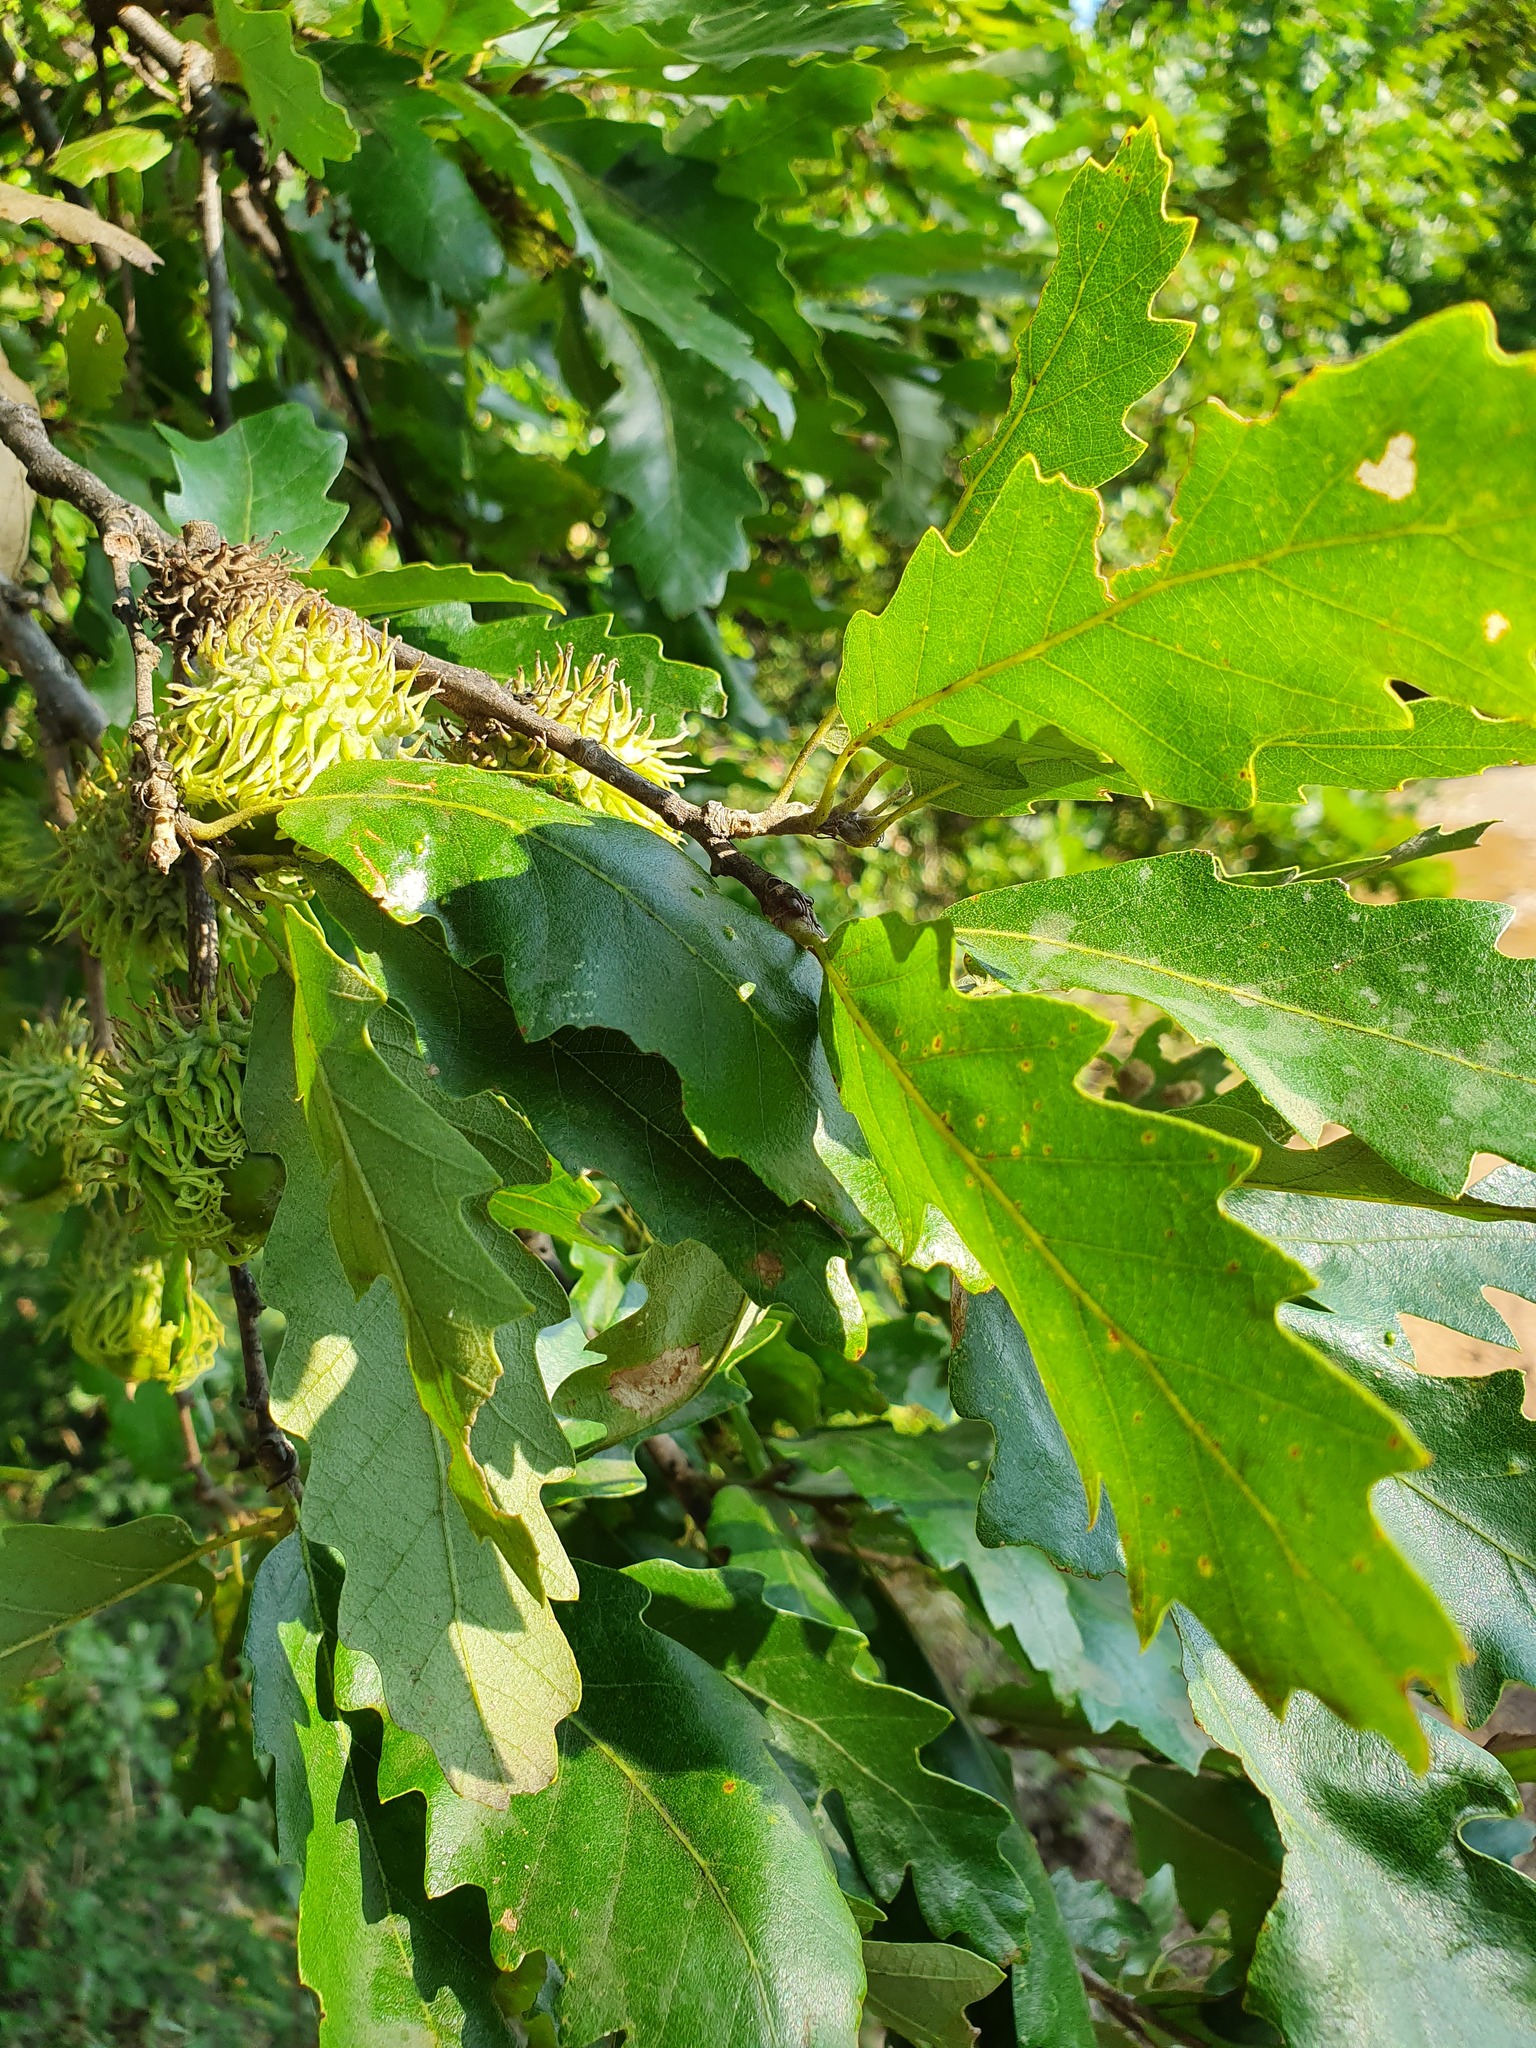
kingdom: Plantae
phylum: Tracheophyta
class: Magnoliopsida
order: Fagales
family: Fagaceae
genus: Quercus
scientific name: Quercus cerris
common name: Turkey oak
